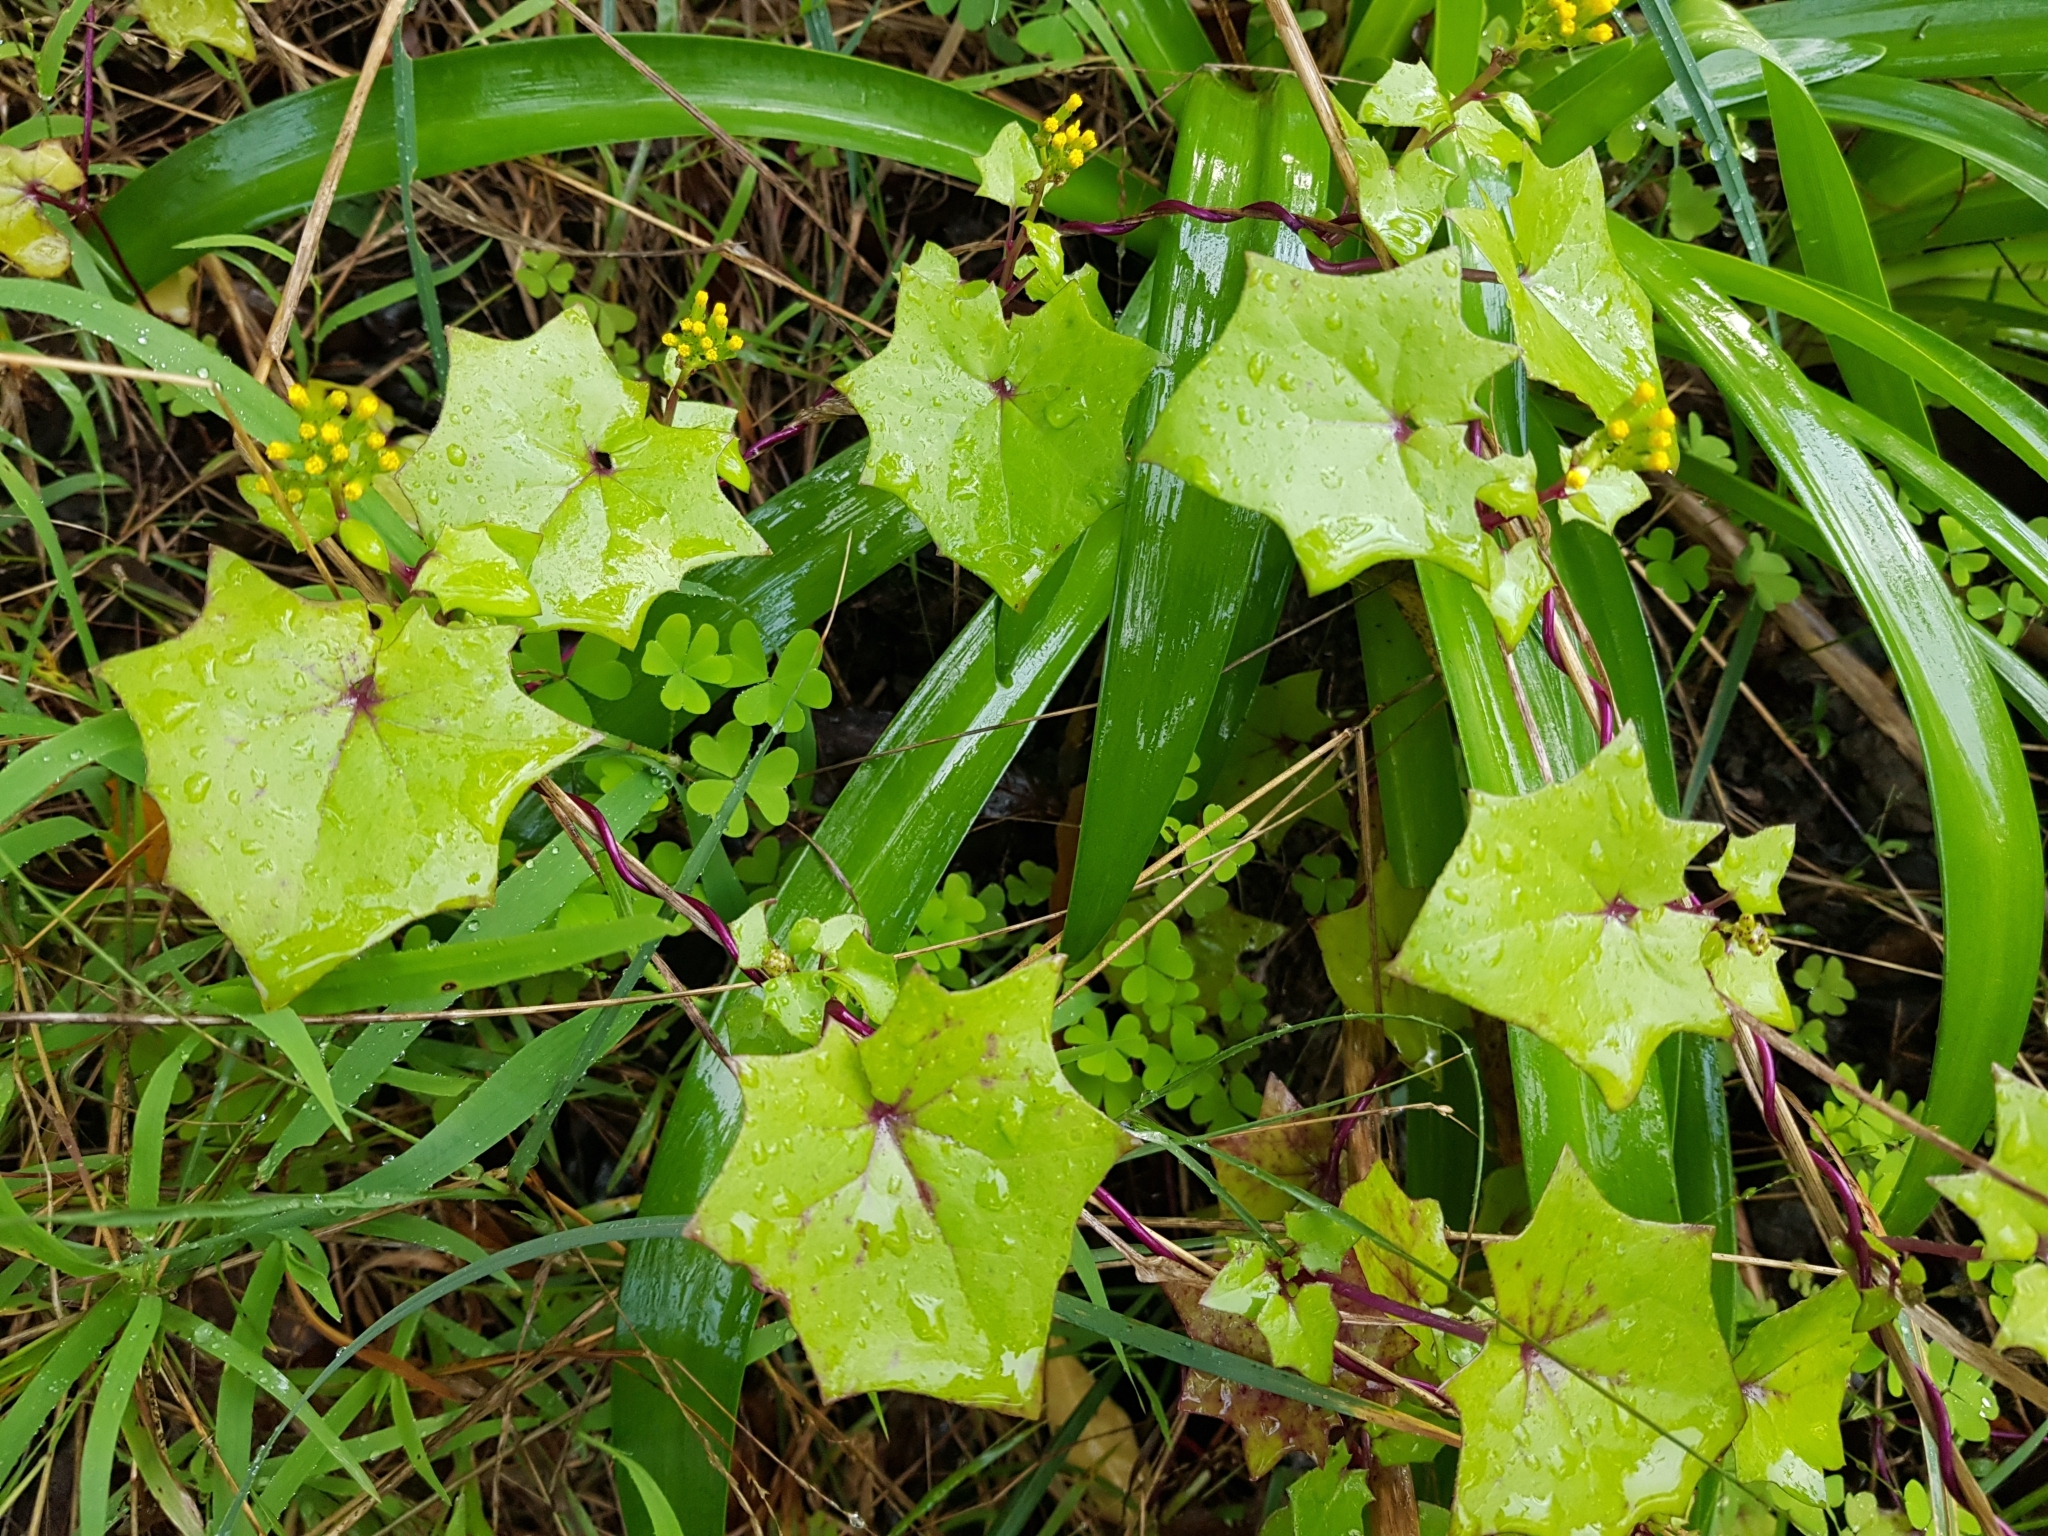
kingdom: Plantae
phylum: Tracheophyta
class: Magnoliopsida
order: Asterales
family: Asteraceae
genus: Delairea
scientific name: Delairea odorata
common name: Cape-ivy
